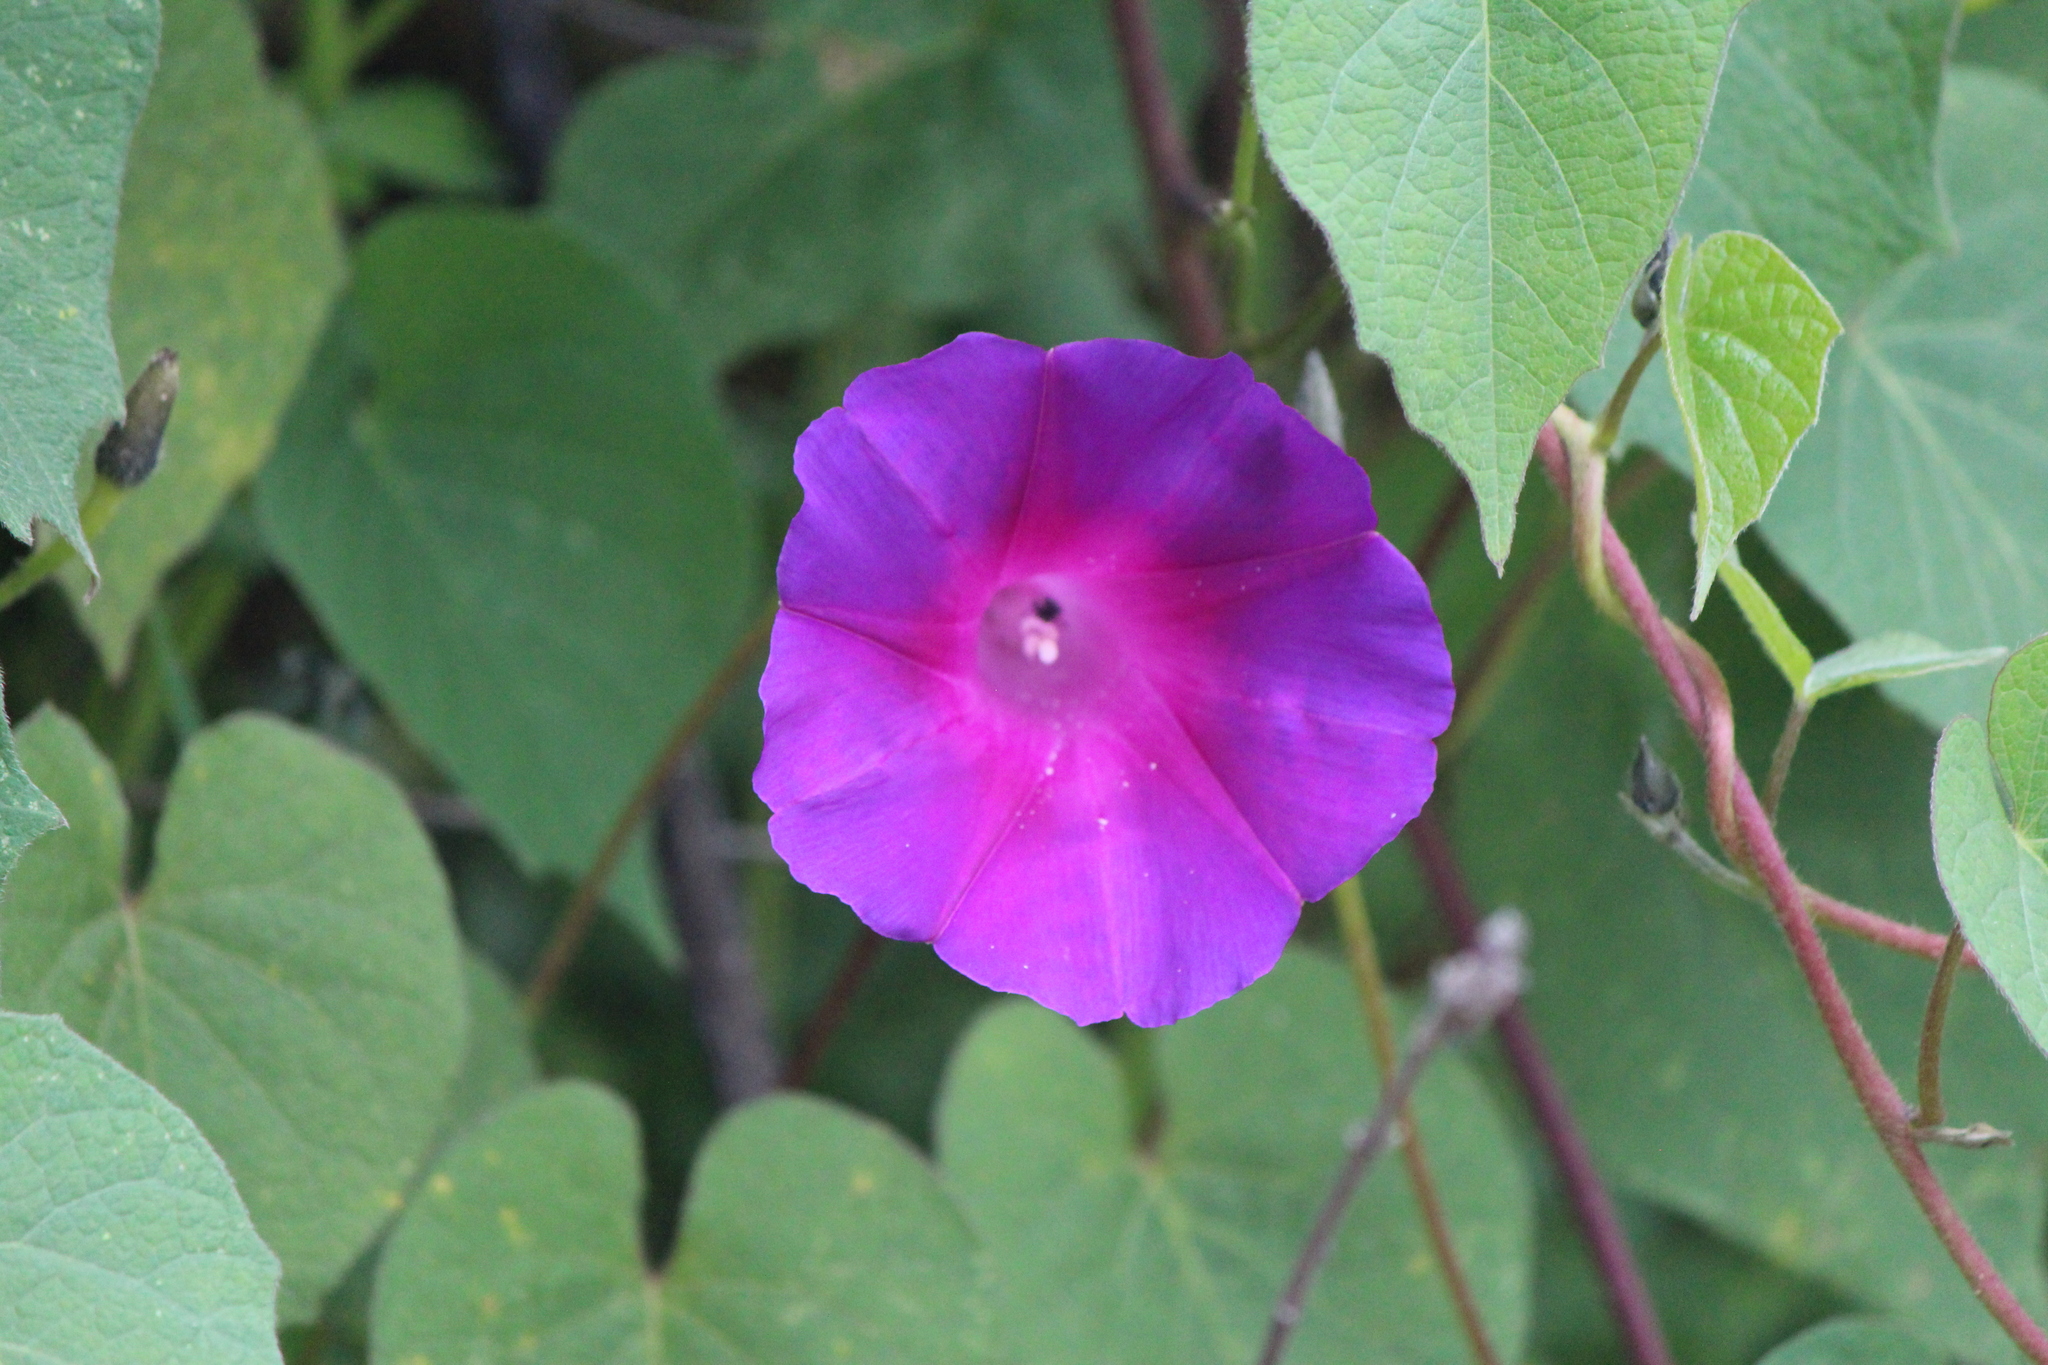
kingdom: Plantae
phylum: Tracheophyta
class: Magnoliopsida
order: Solanales
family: Convolvulaceae
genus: Ipomoea
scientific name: Ipomoea orizabensis
